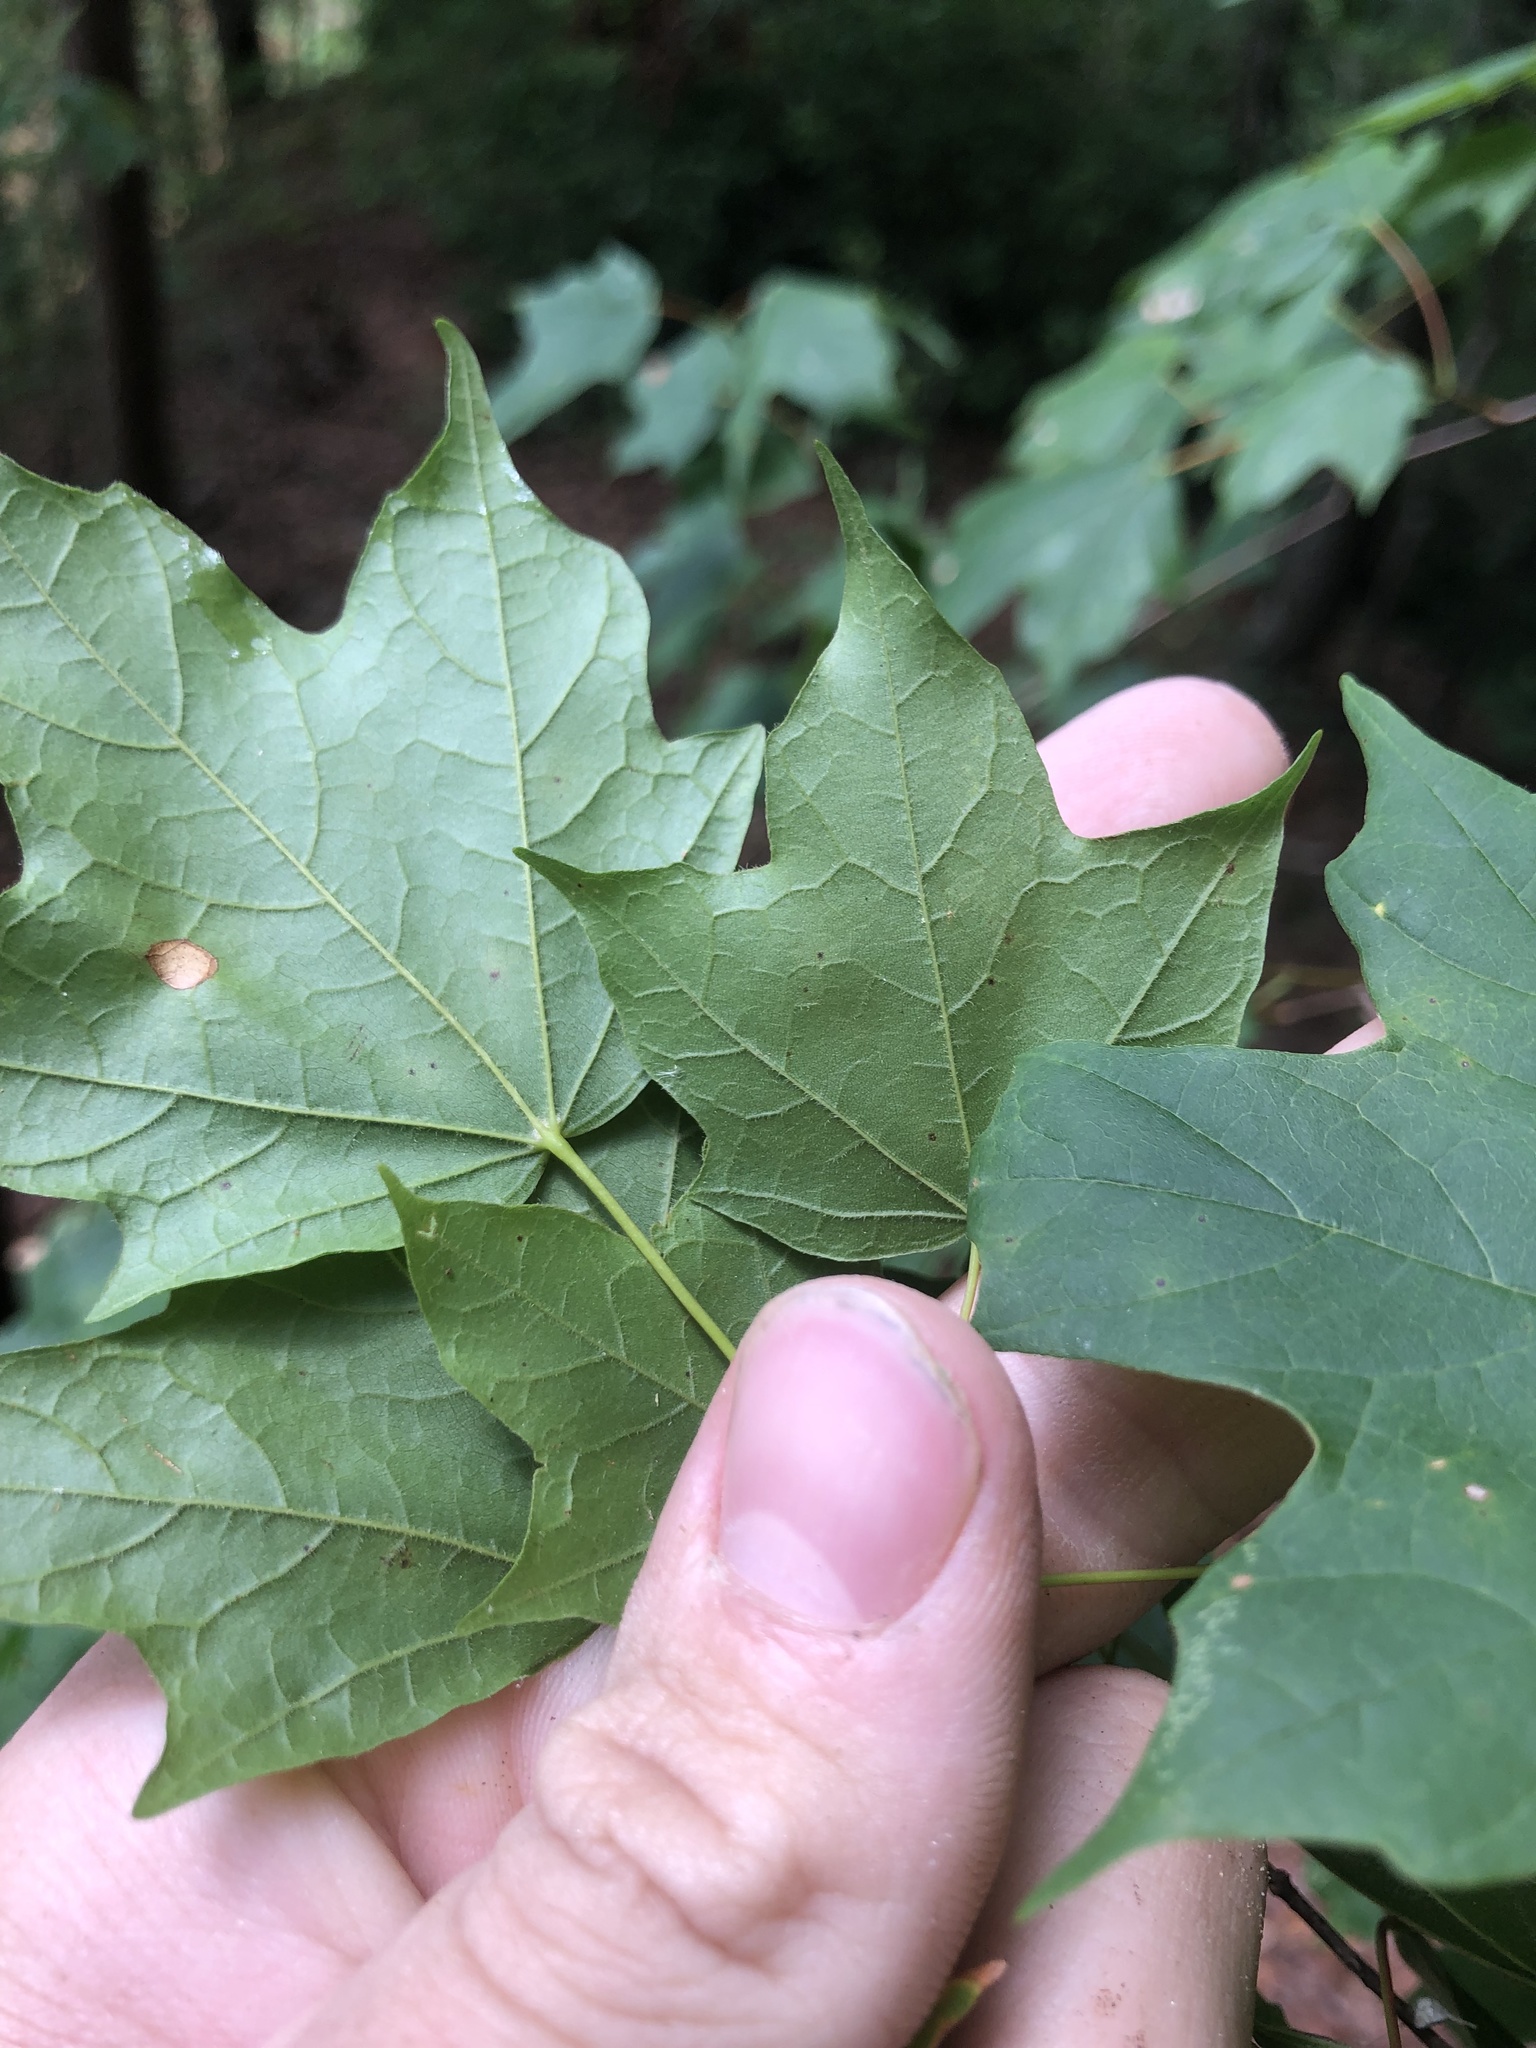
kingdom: Plantae
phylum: Tracheophyta
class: Magnoliopsida
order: Sapindales
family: Sapindaceae
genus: Acer
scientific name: Acer leucoderme
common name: Chalk maple
